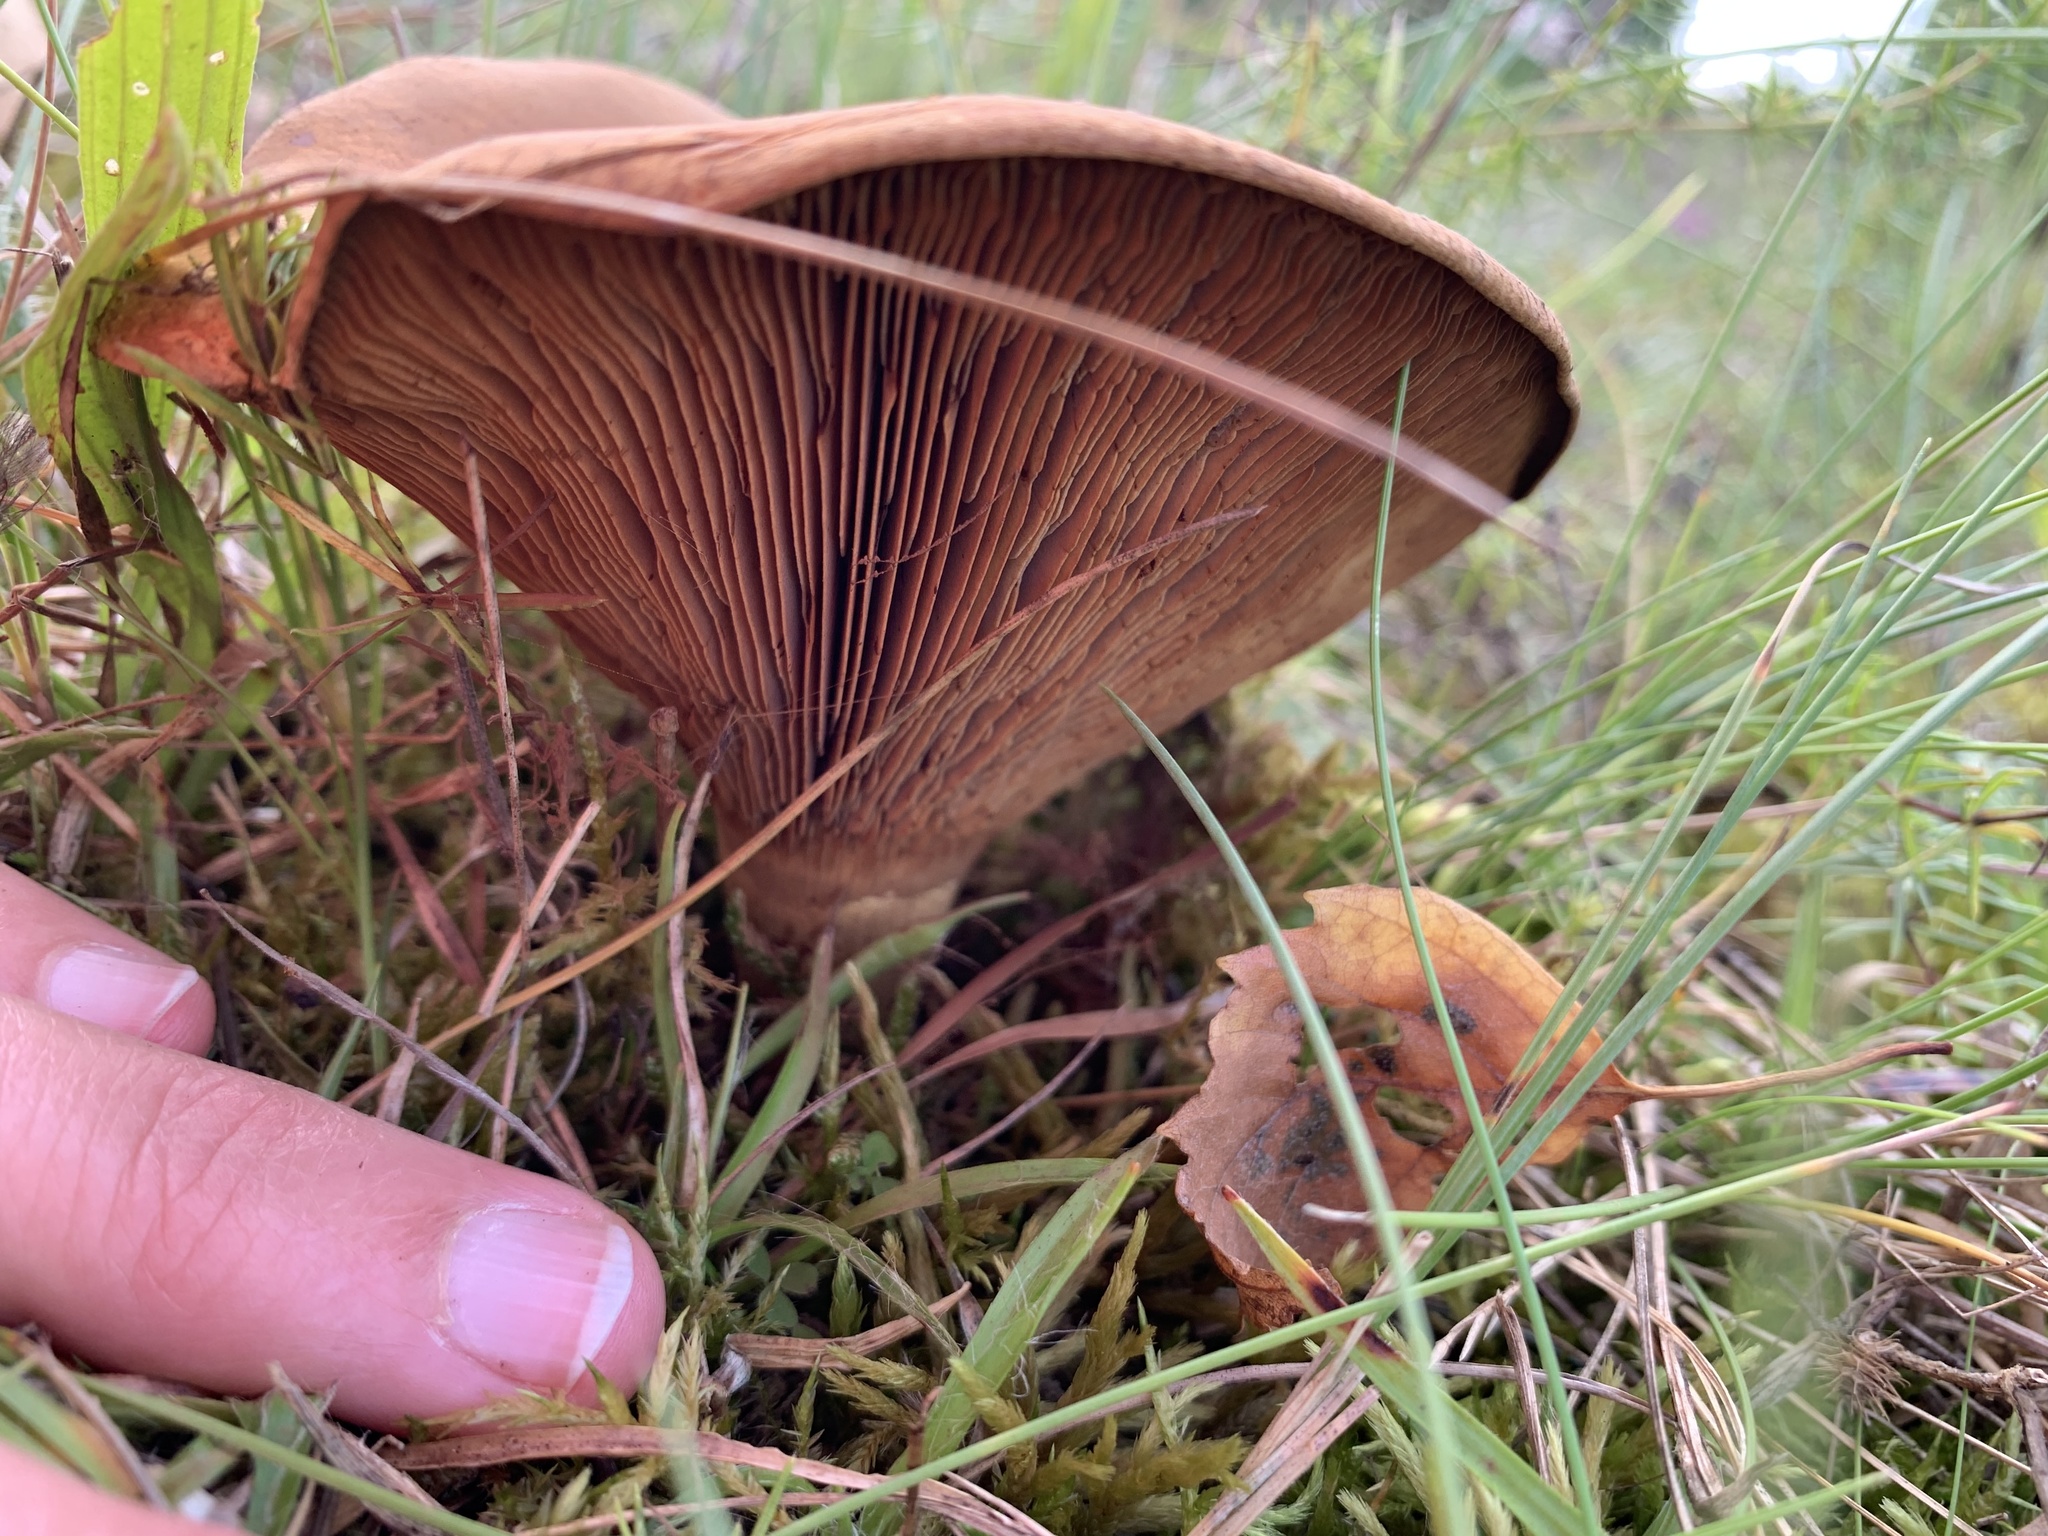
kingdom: Fungi
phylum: Basidiomycota
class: Agaricomycetes
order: Boletales
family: Paxillaceae
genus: Paxillus
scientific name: Paxillus involutus
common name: Brown roll rim
